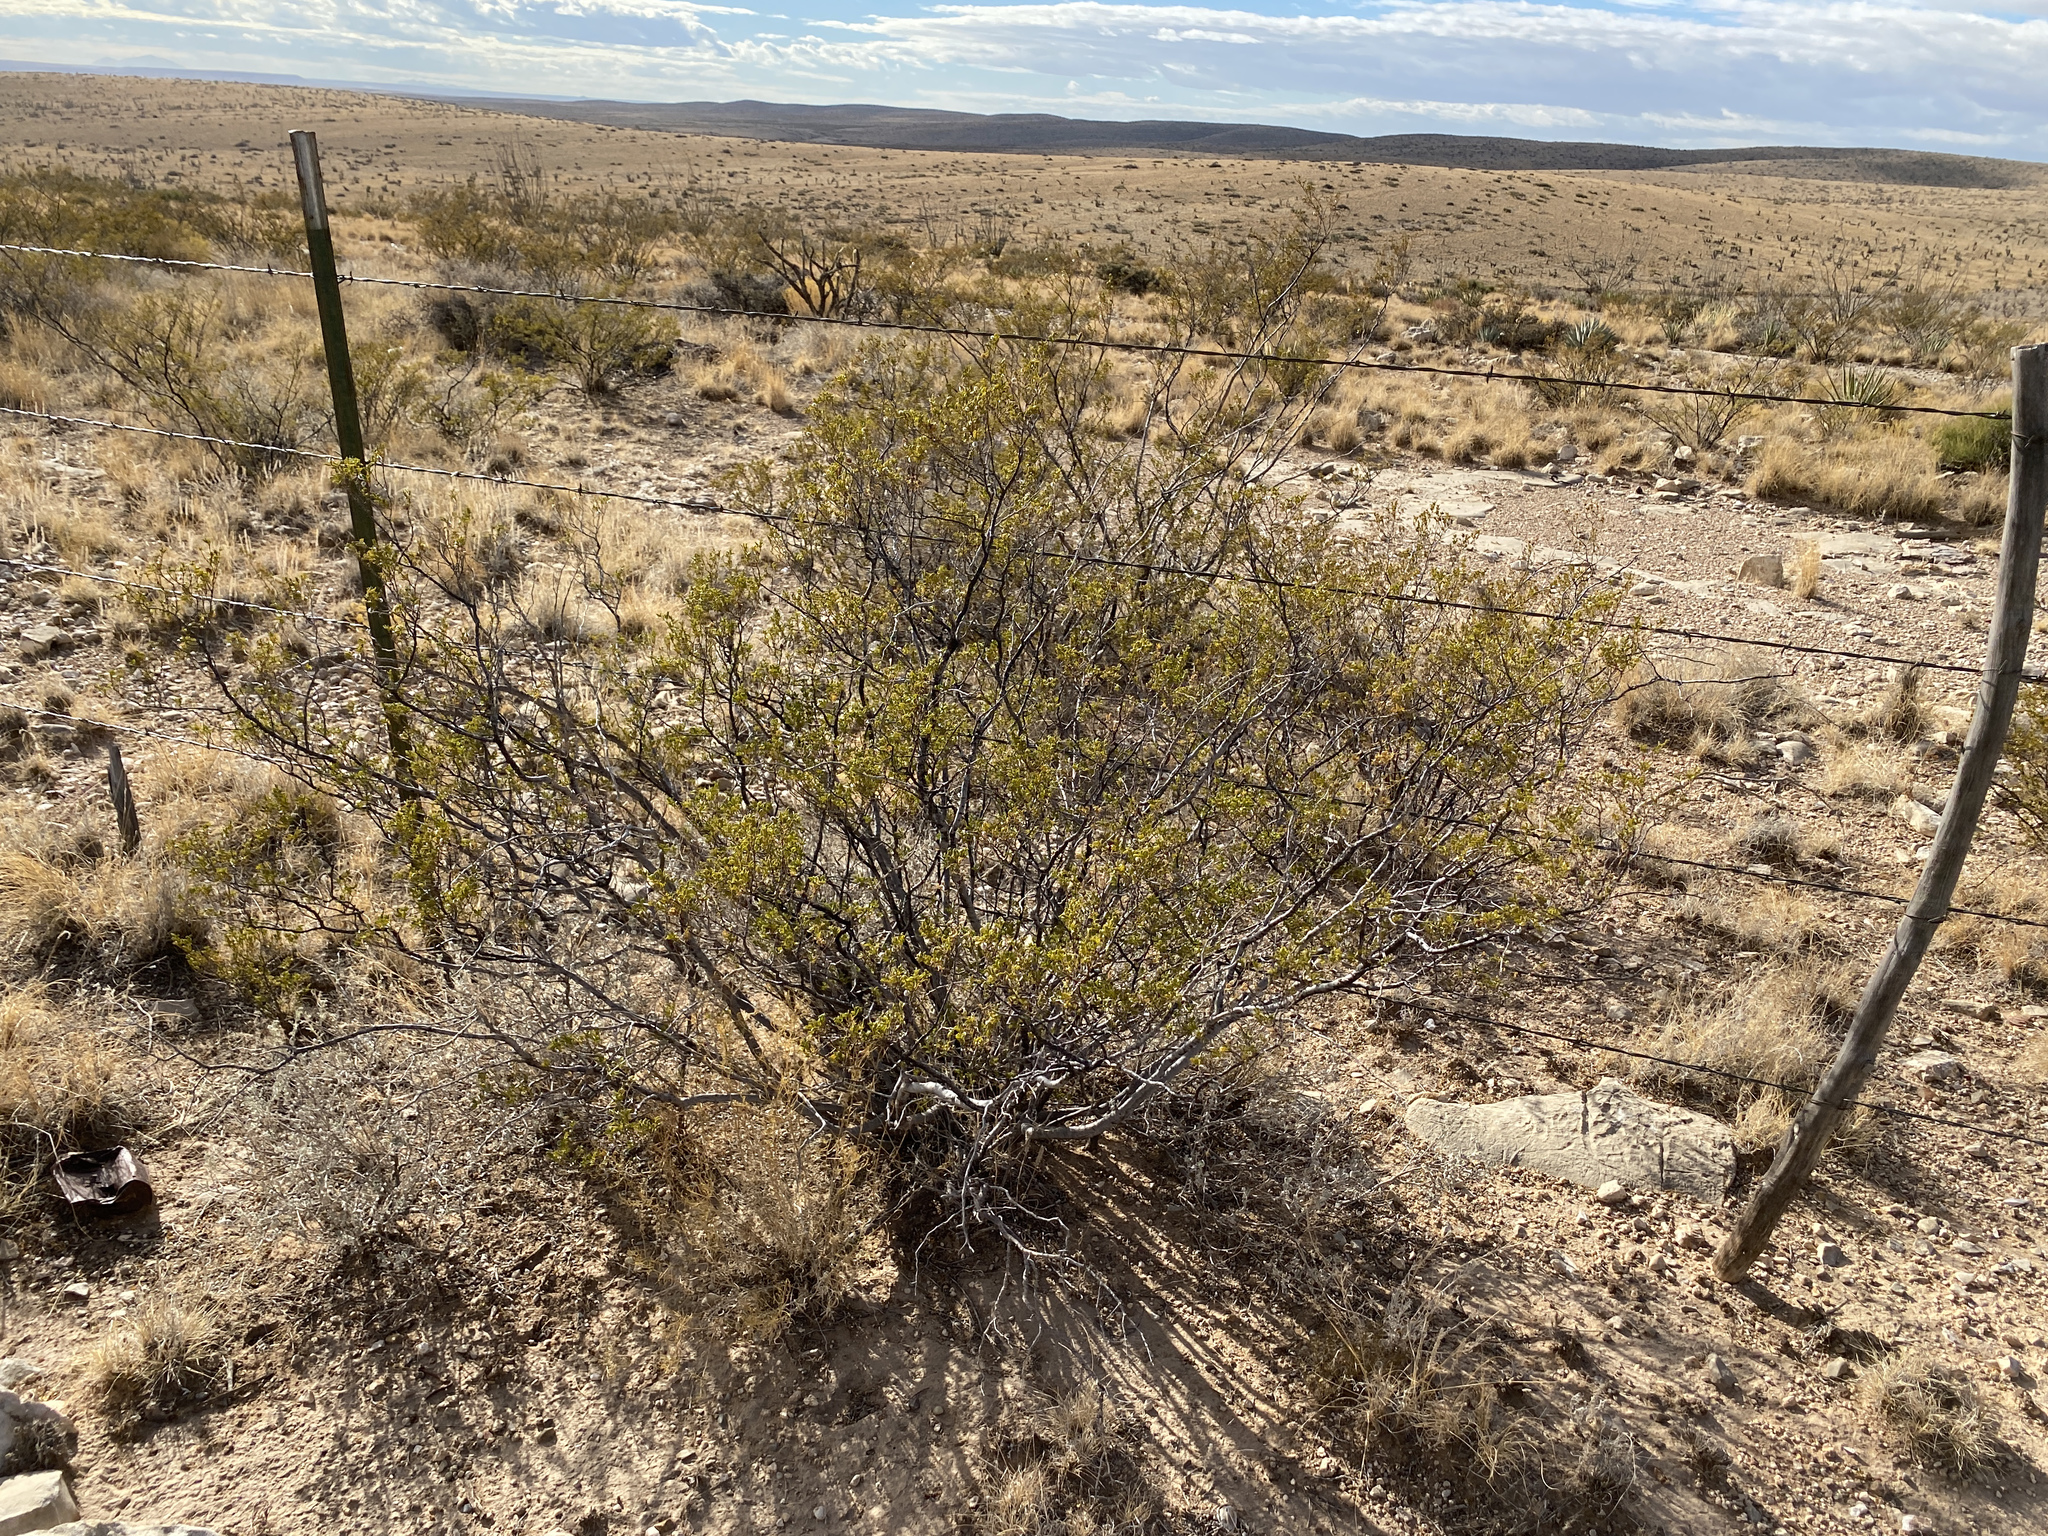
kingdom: Plantae
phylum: Tracheophyta
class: Magnoliopsida
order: Zygophyllales
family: Zygophyllaceae
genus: Larrea
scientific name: Larrea tridentata
